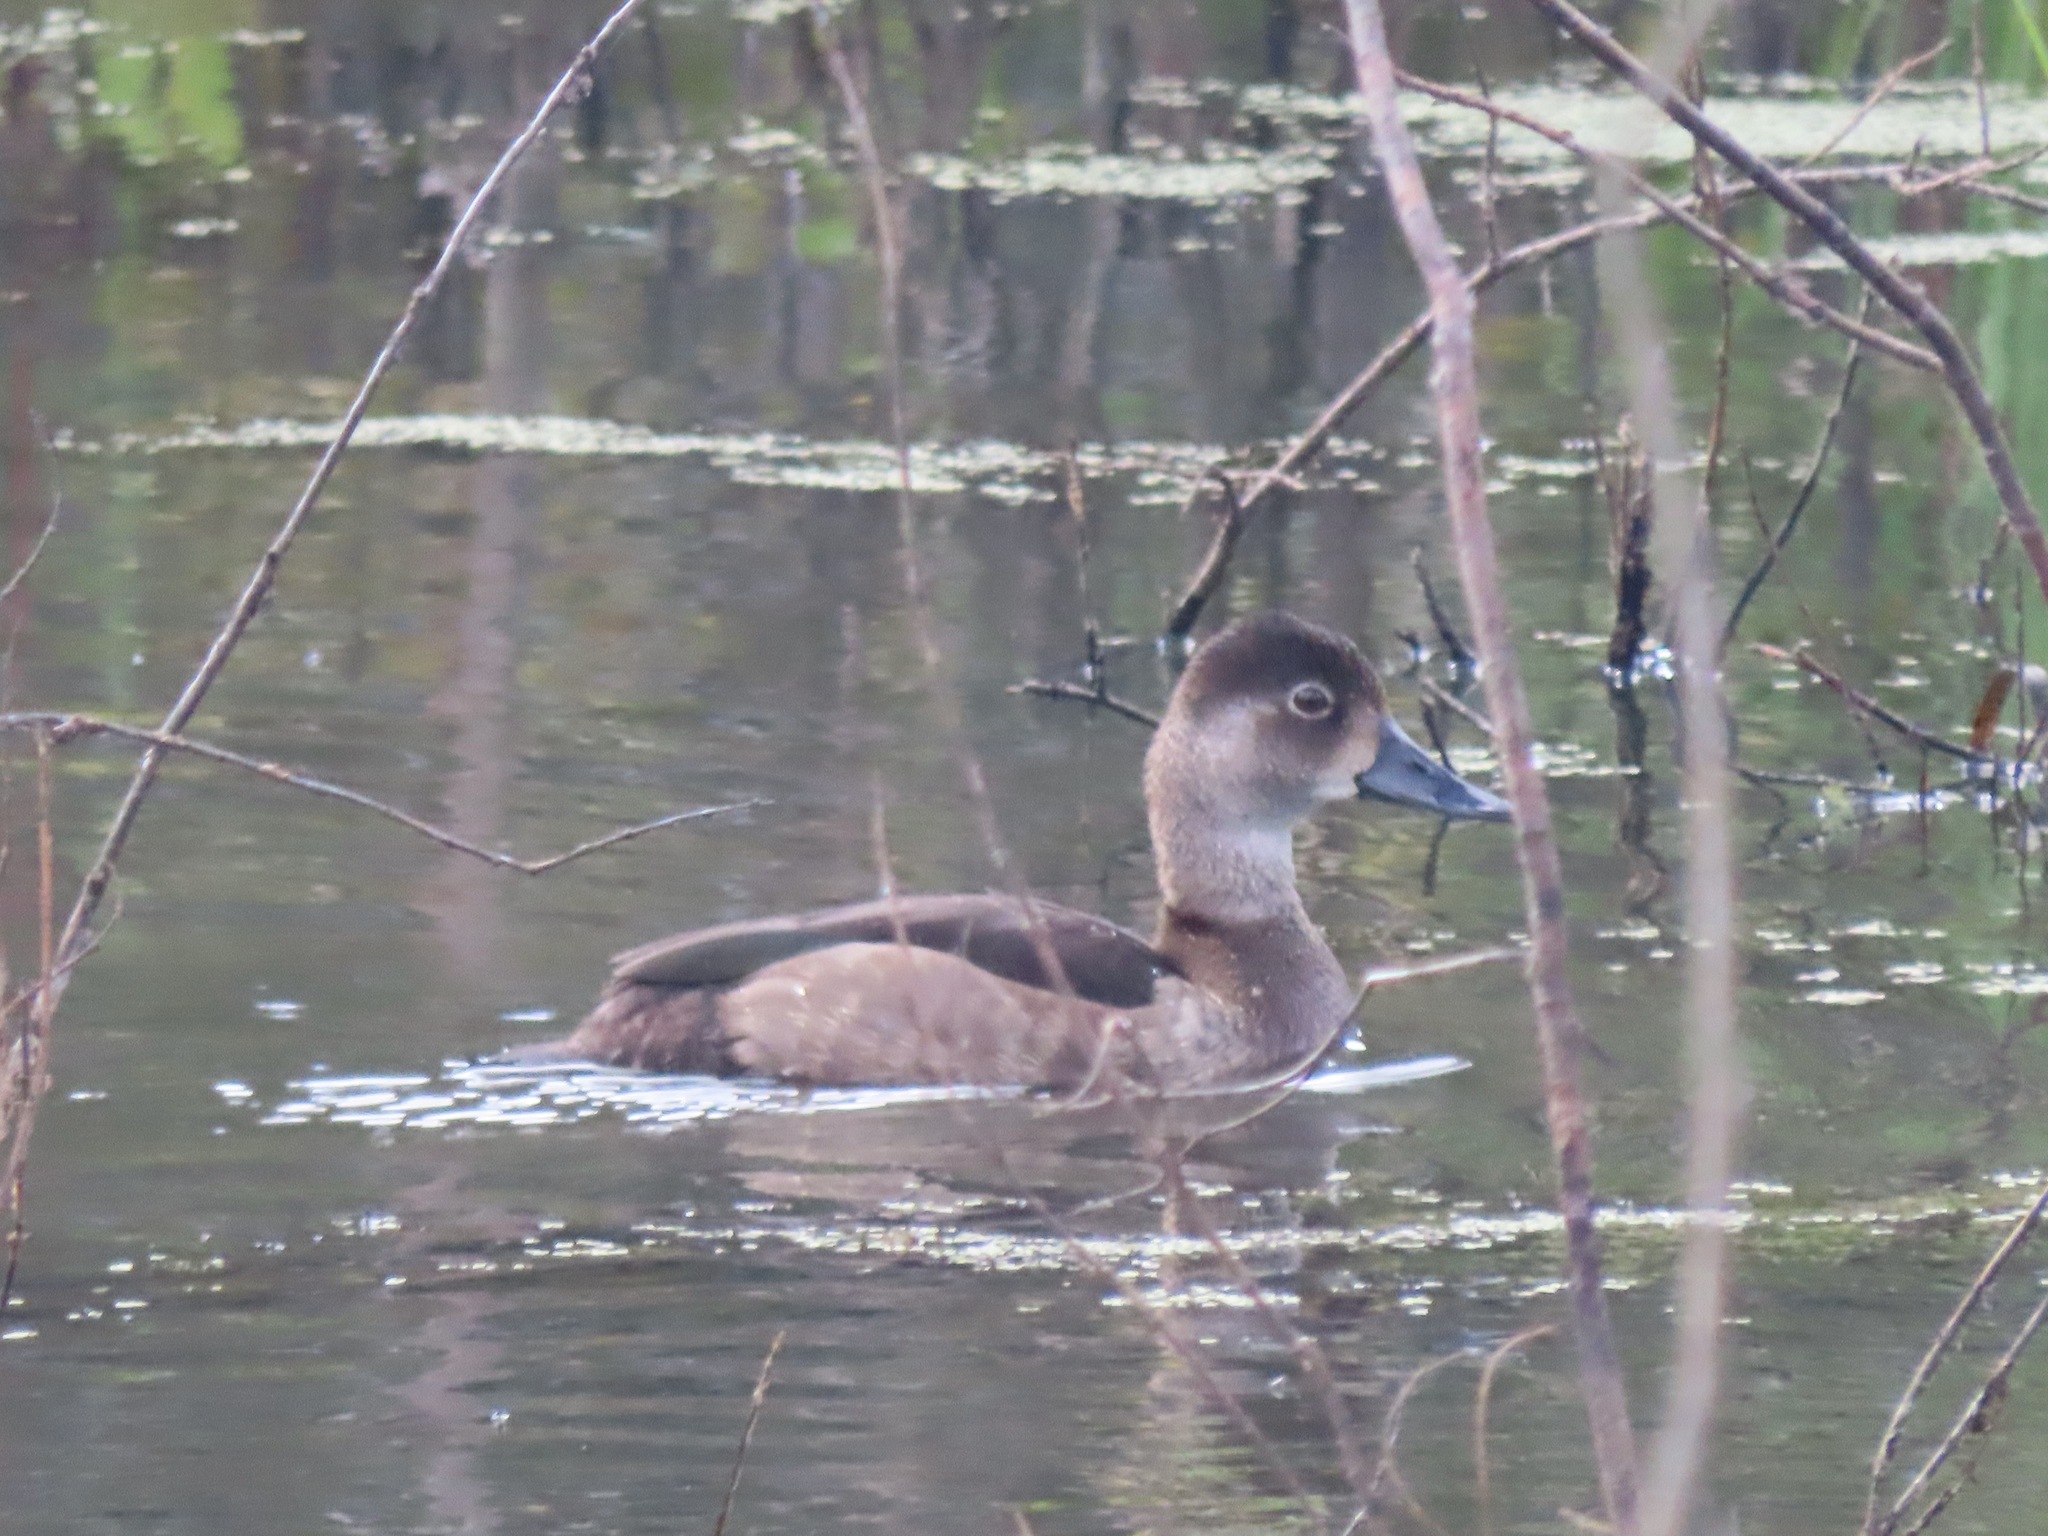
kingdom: Animalia
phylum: Chordata
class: Aves
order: Anseriformes
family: Anatidae
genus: Aythya
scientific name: Aythya collaris
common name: Ring-necked duck
